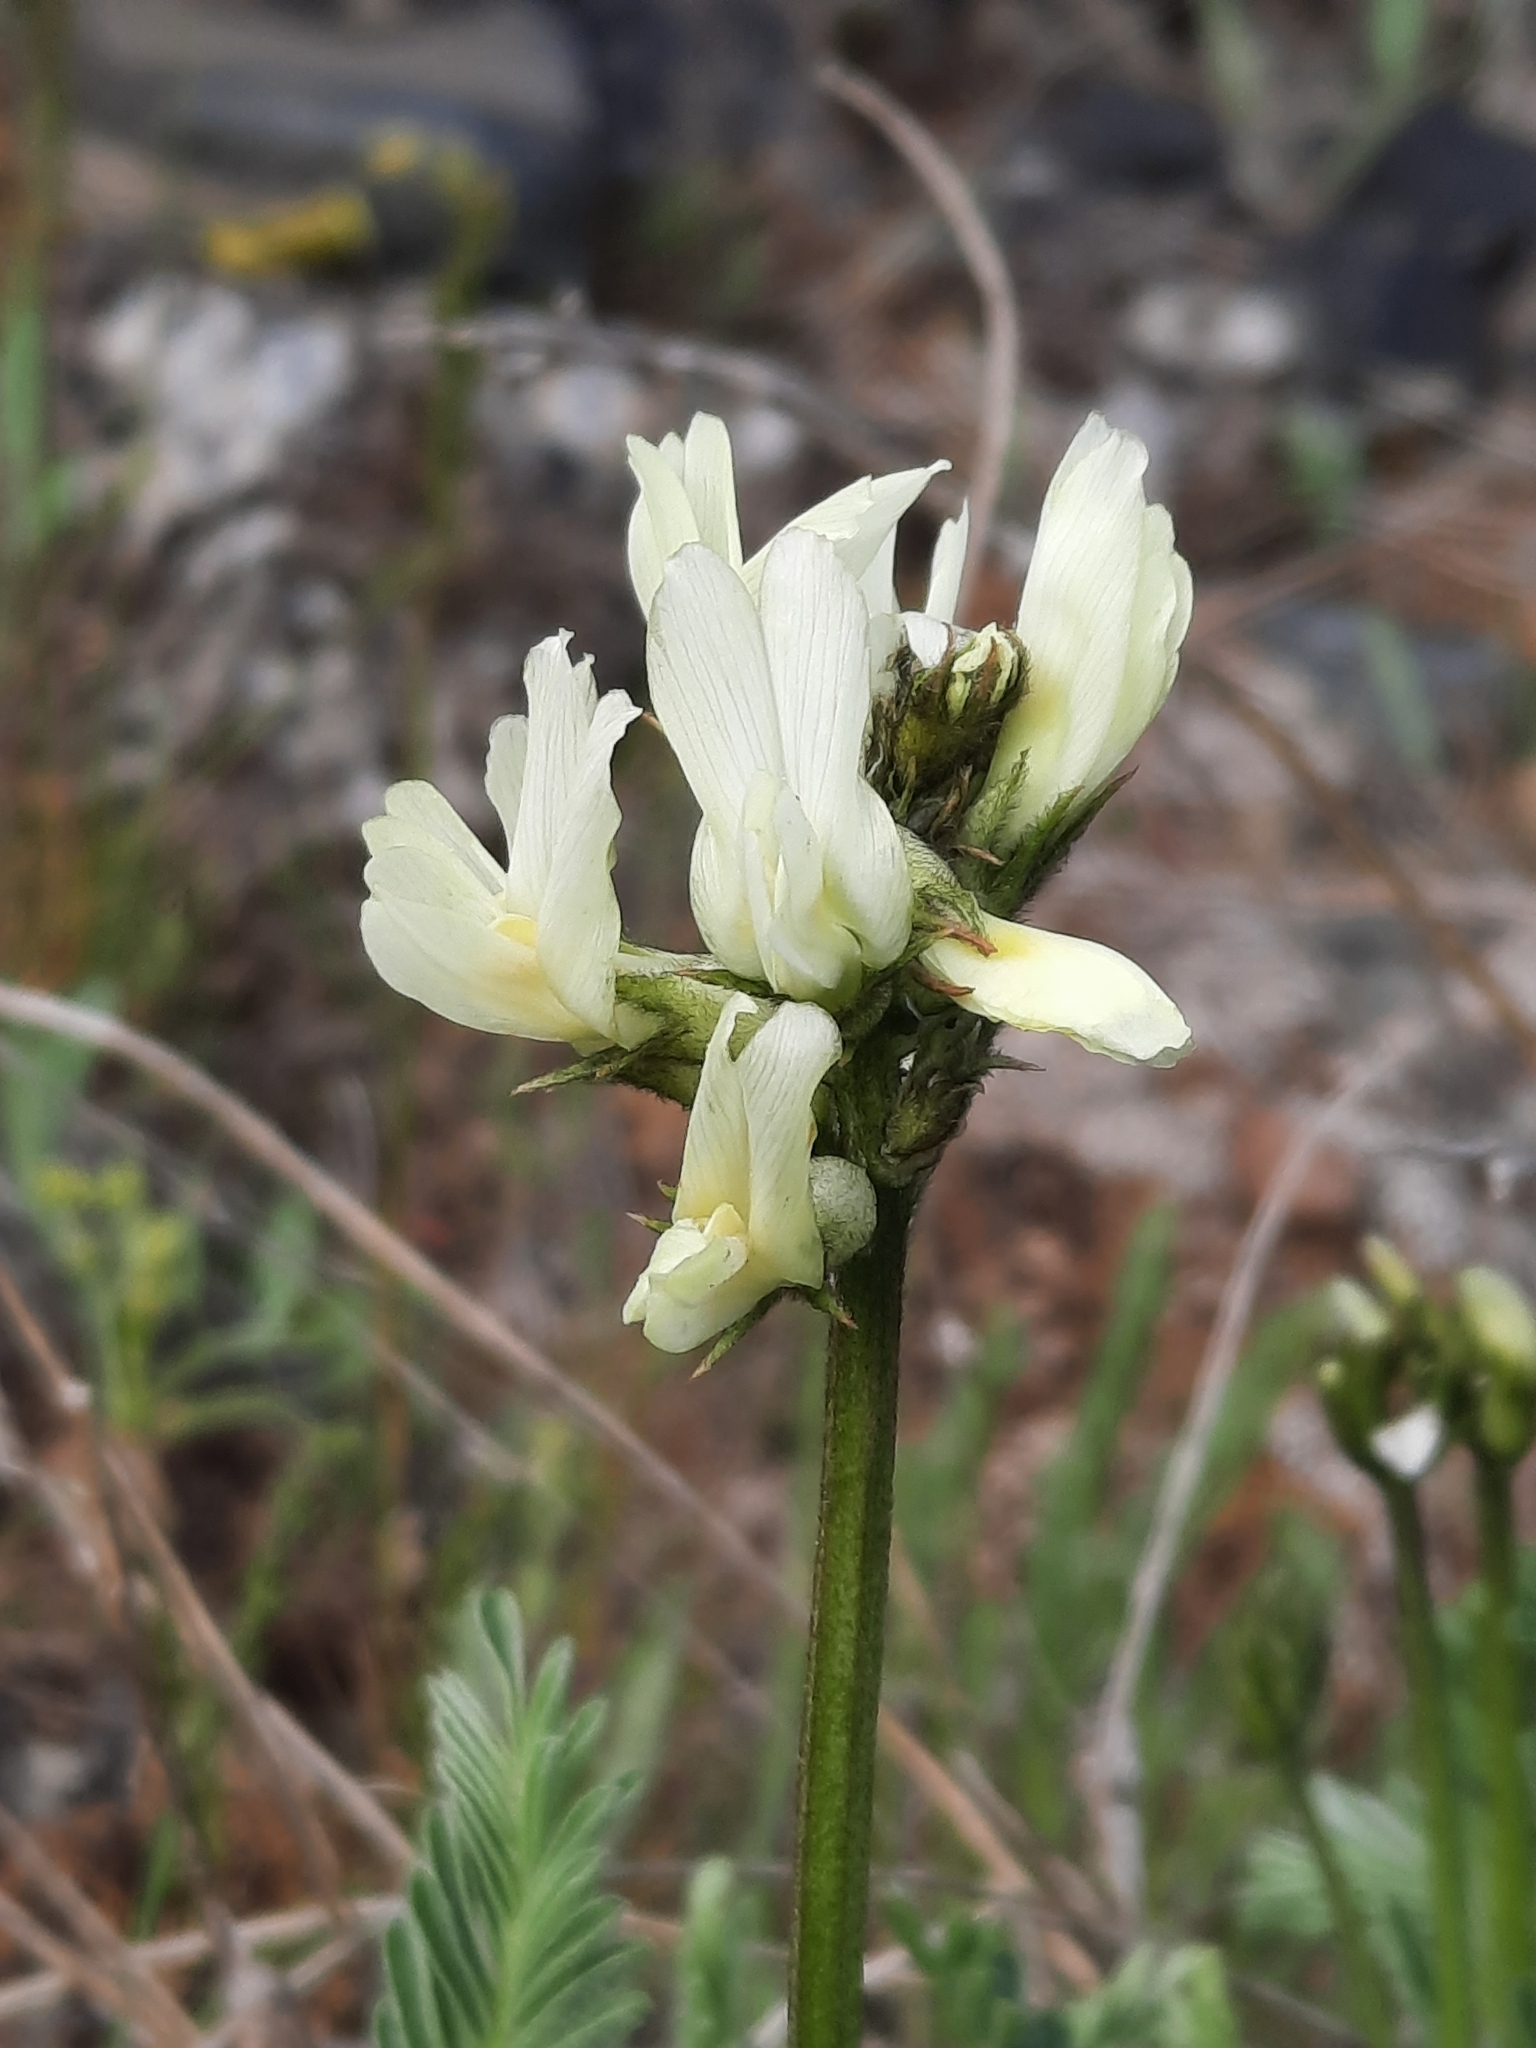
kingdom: Plantae
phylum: Tracheophyta
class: Magnoliopsida
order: Fabales
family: Fabaceae
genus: Astragalus
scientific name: Astragalus reventiformis
